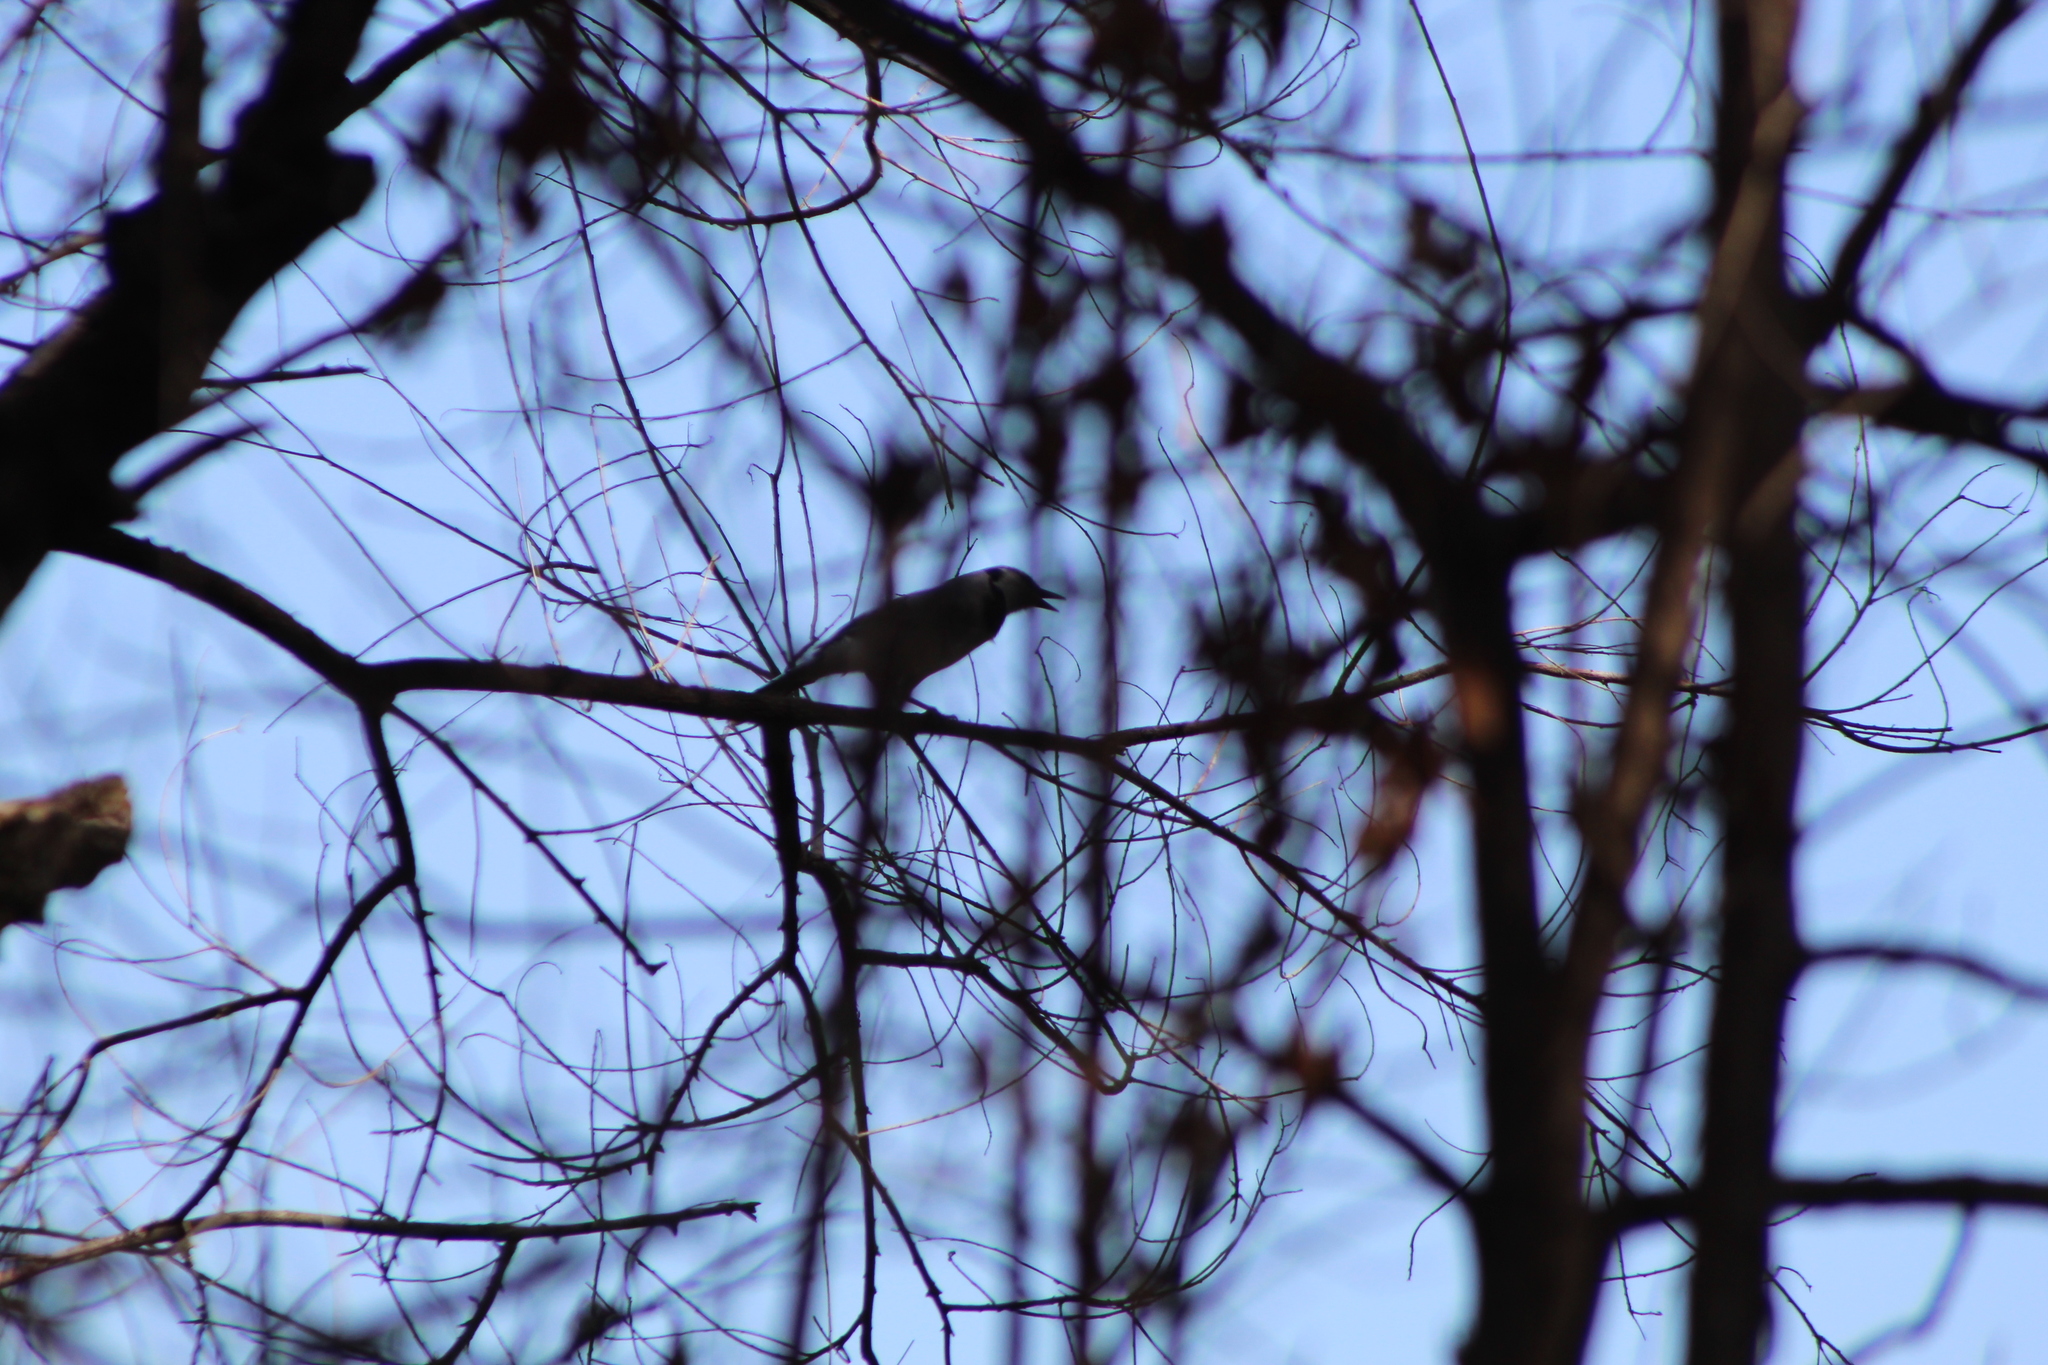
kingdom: Animalia
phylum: Chordata
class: Aves
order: Passeriformes
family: Corvidae
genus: Cyanocitta
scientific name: Cyanocitta cristata
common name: Blue jay
